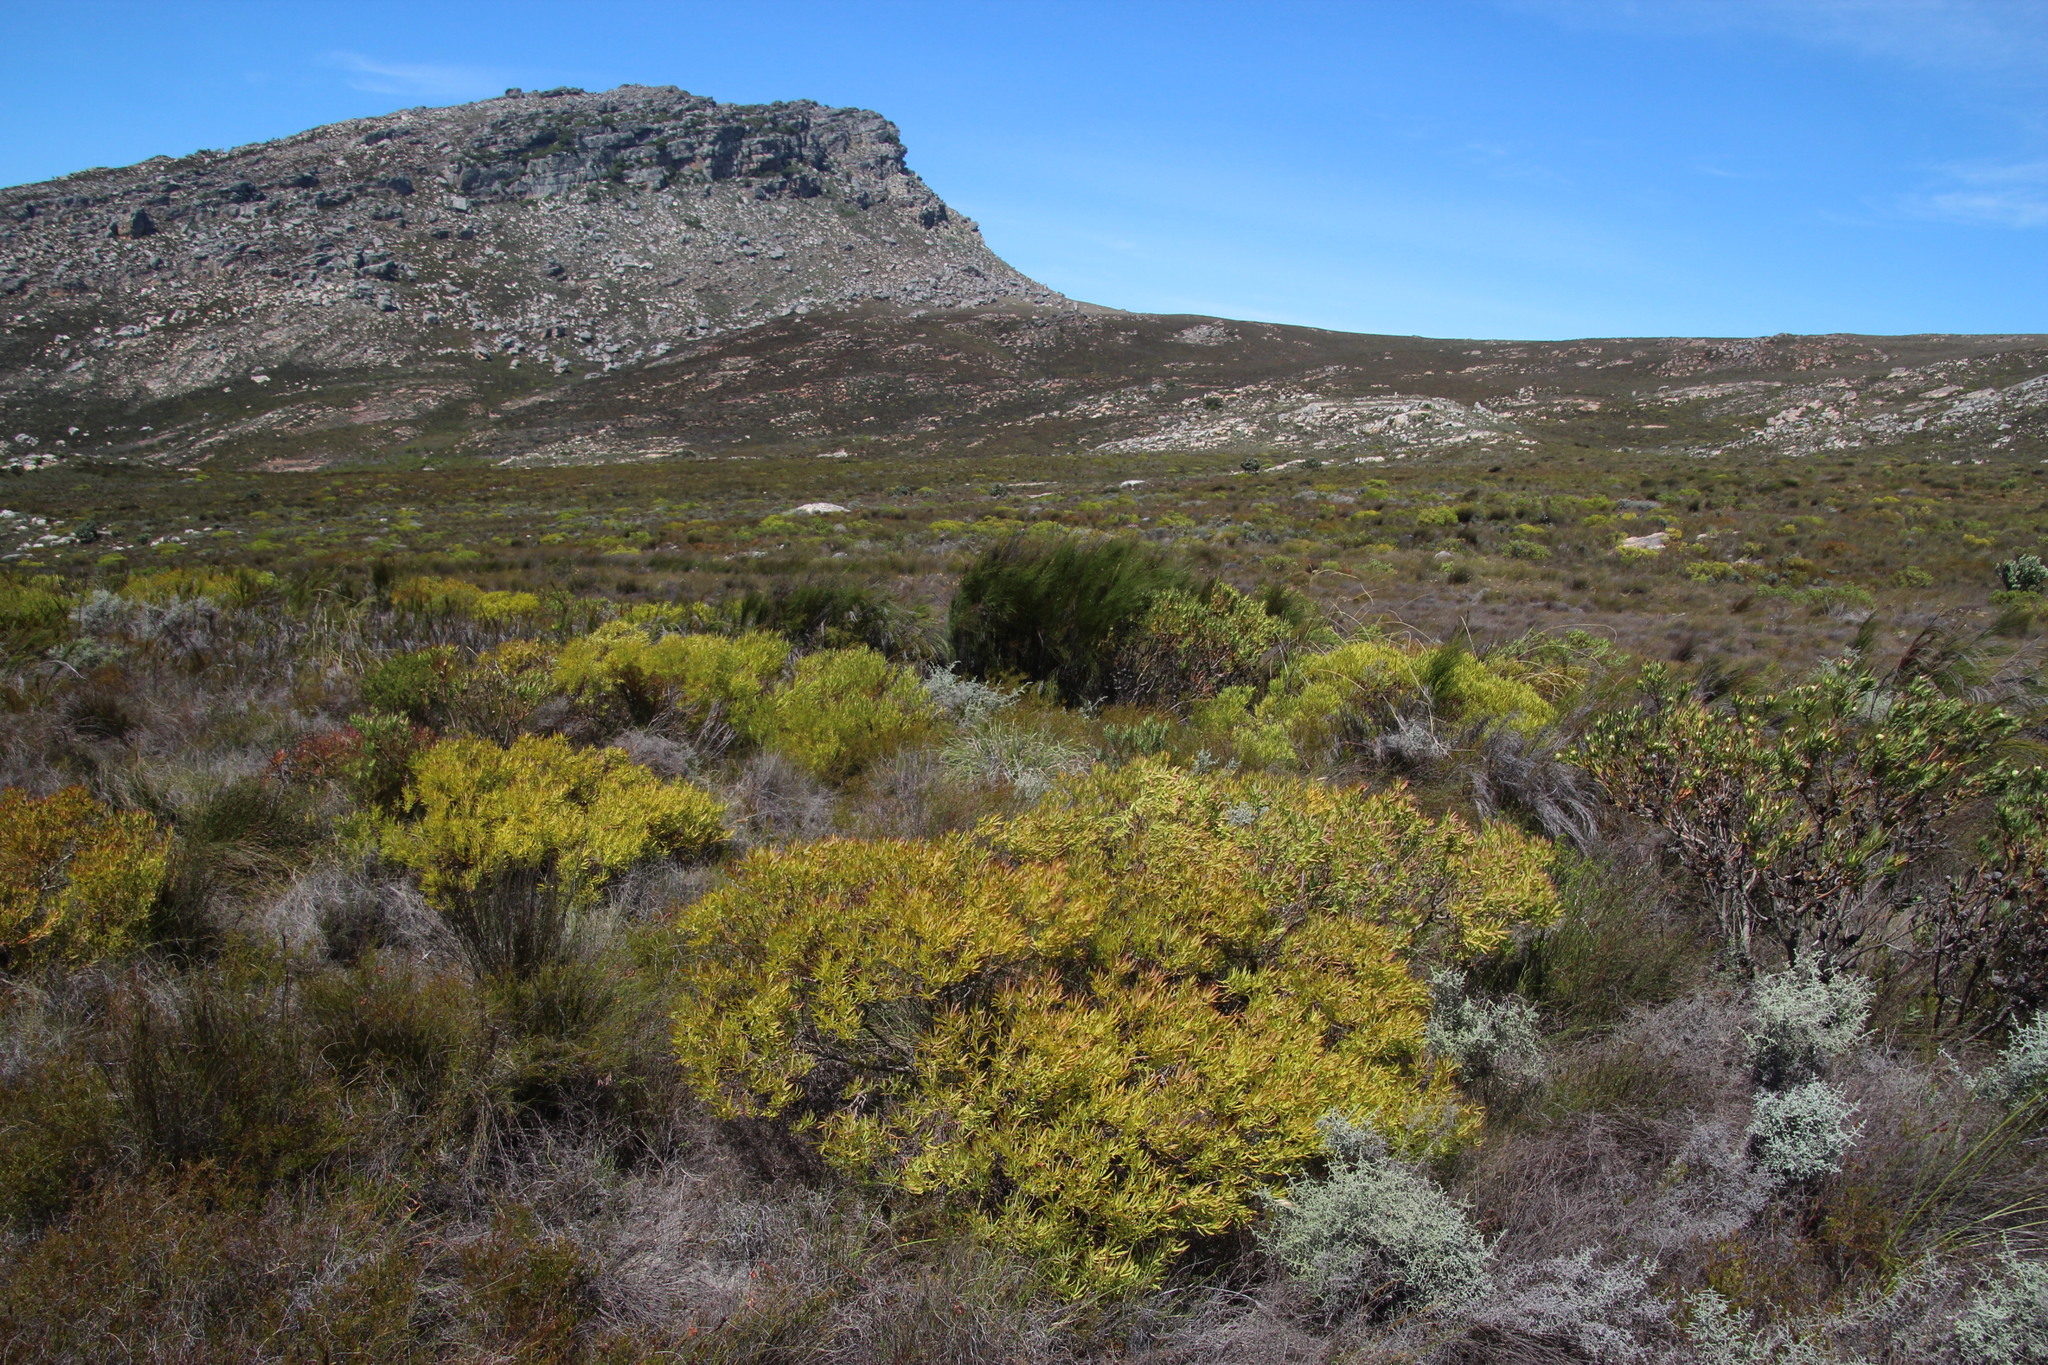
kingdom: Plantae
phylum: Tracheophyta
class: Magnoliopsida
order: Proteales
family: Proteaceae
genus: Leucadendron
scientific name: Leucadendron salignum
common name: Common sunshine conebush
